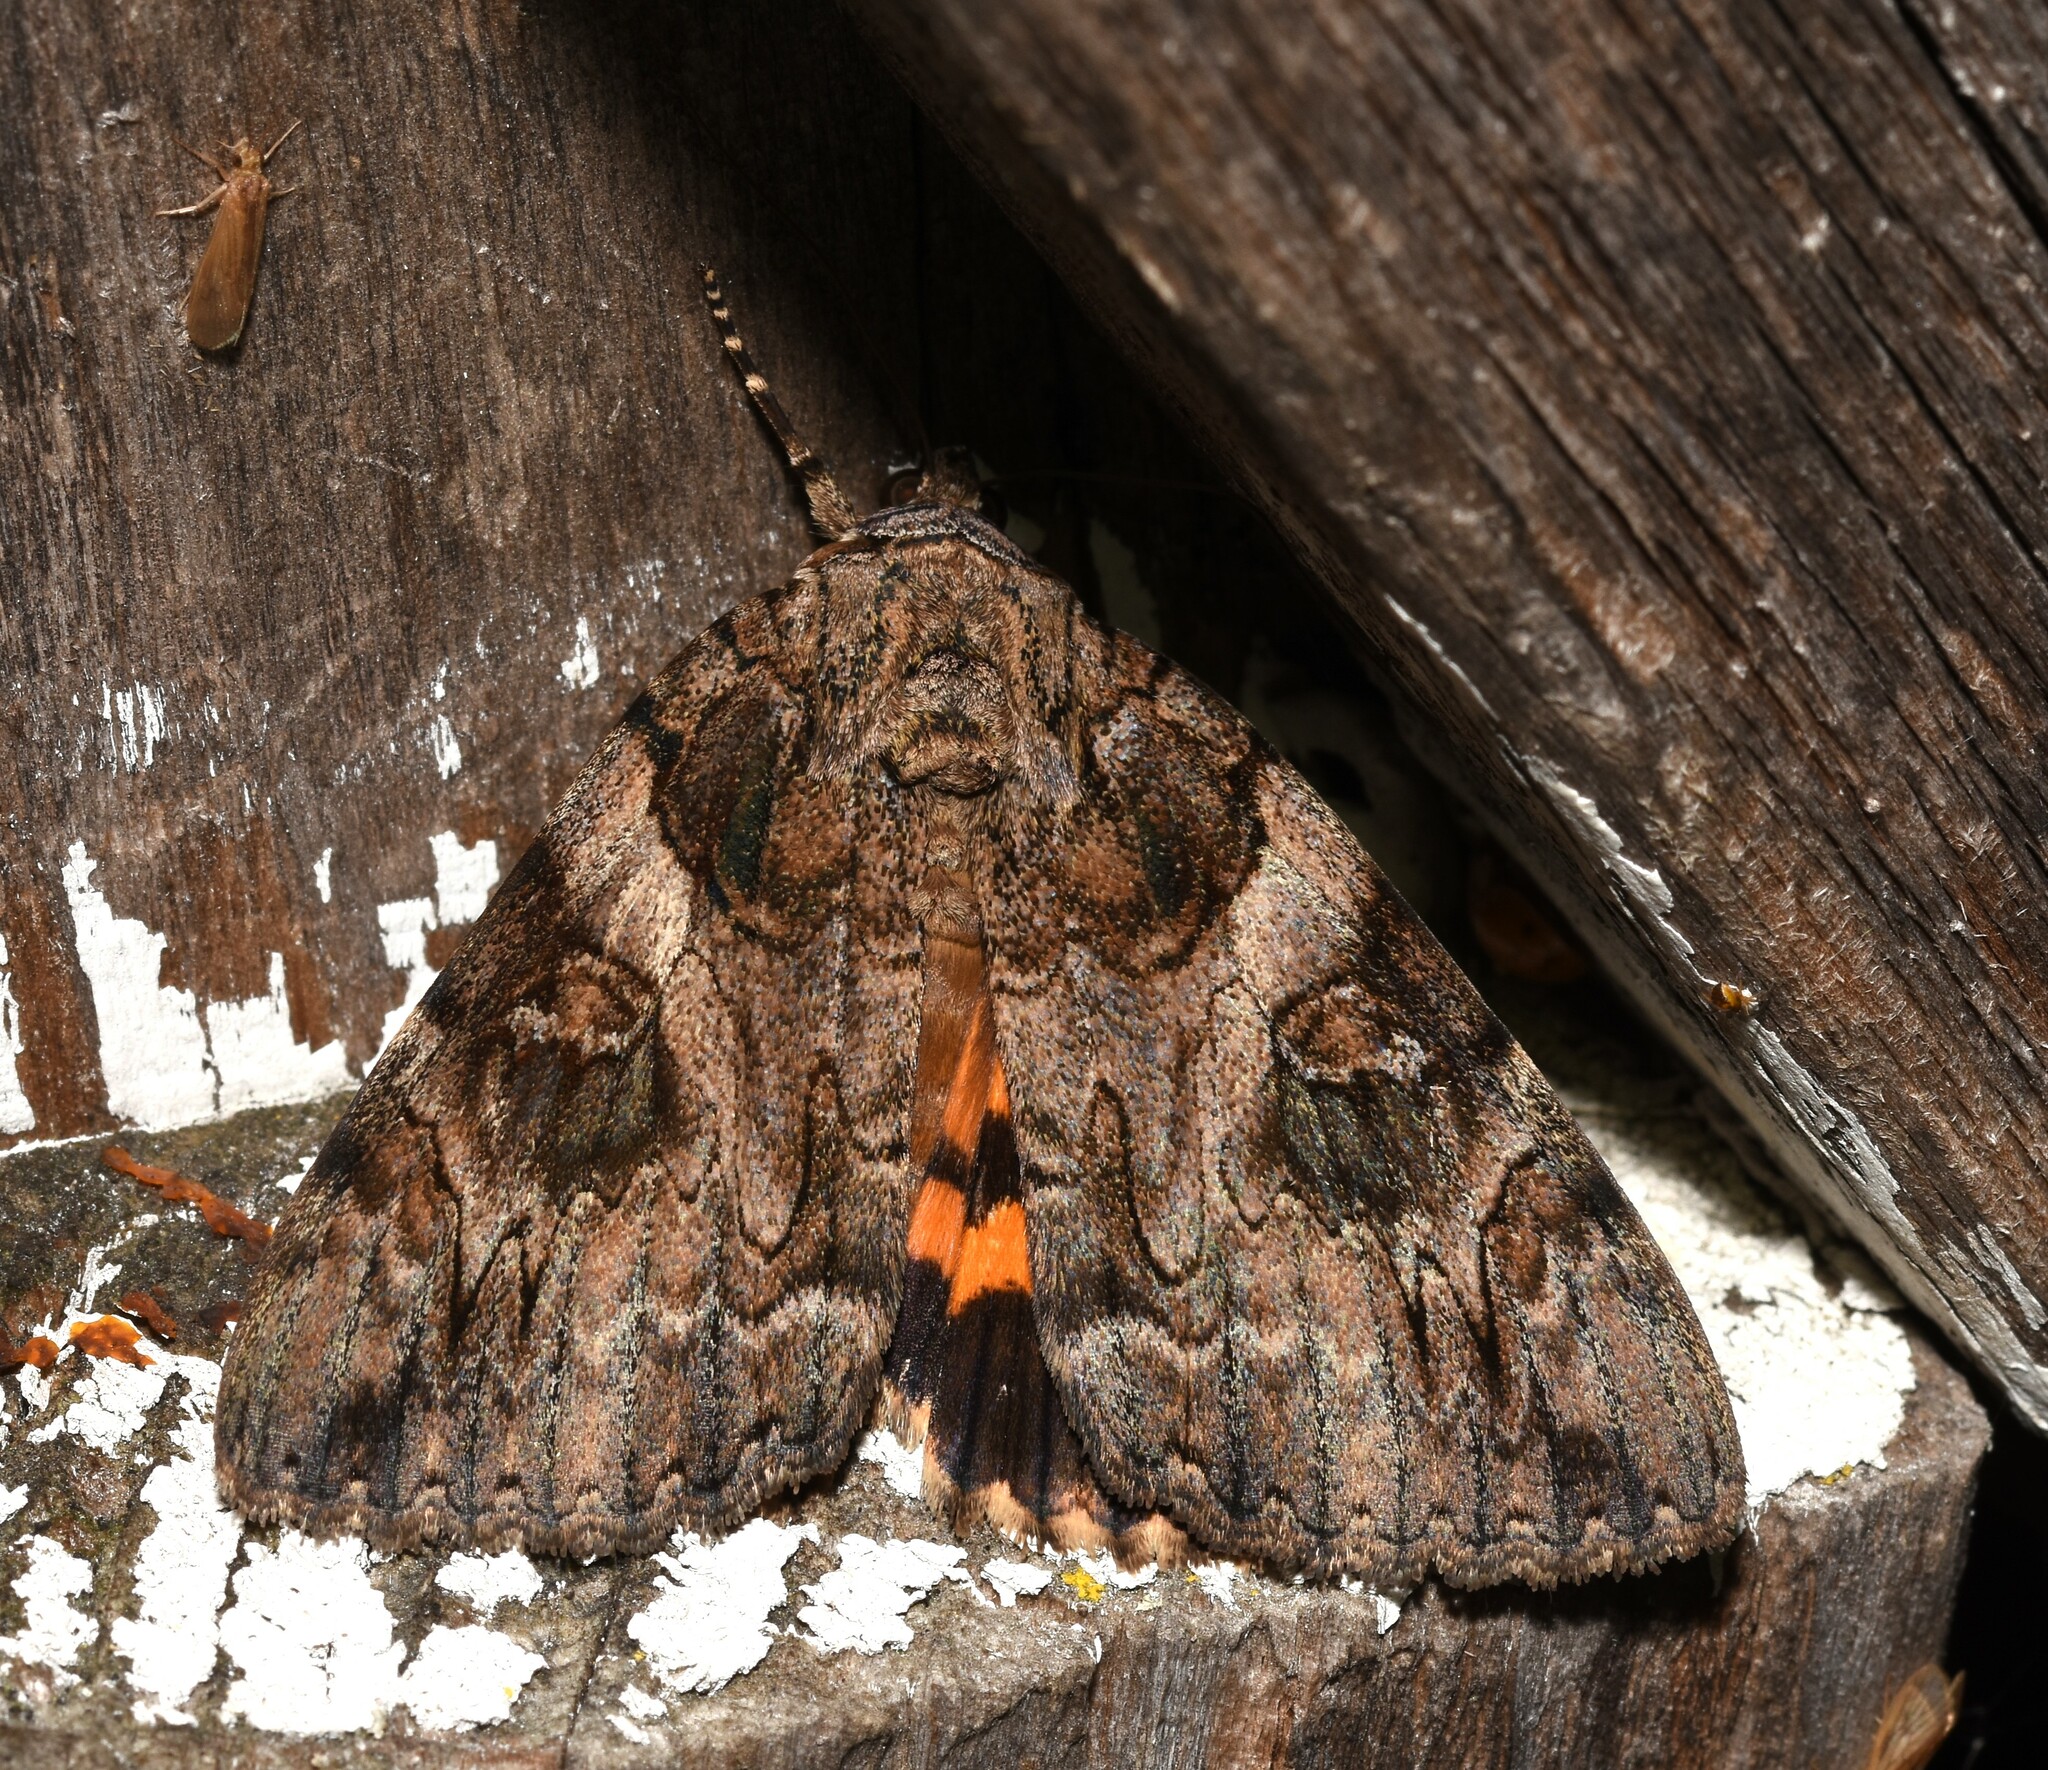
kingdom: Animalia
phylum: Arthropoda
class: Insecta
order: Lepidoptera
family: Erebidae
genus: Catocala
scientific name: Catocala piatrix
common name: The penitent underwing
